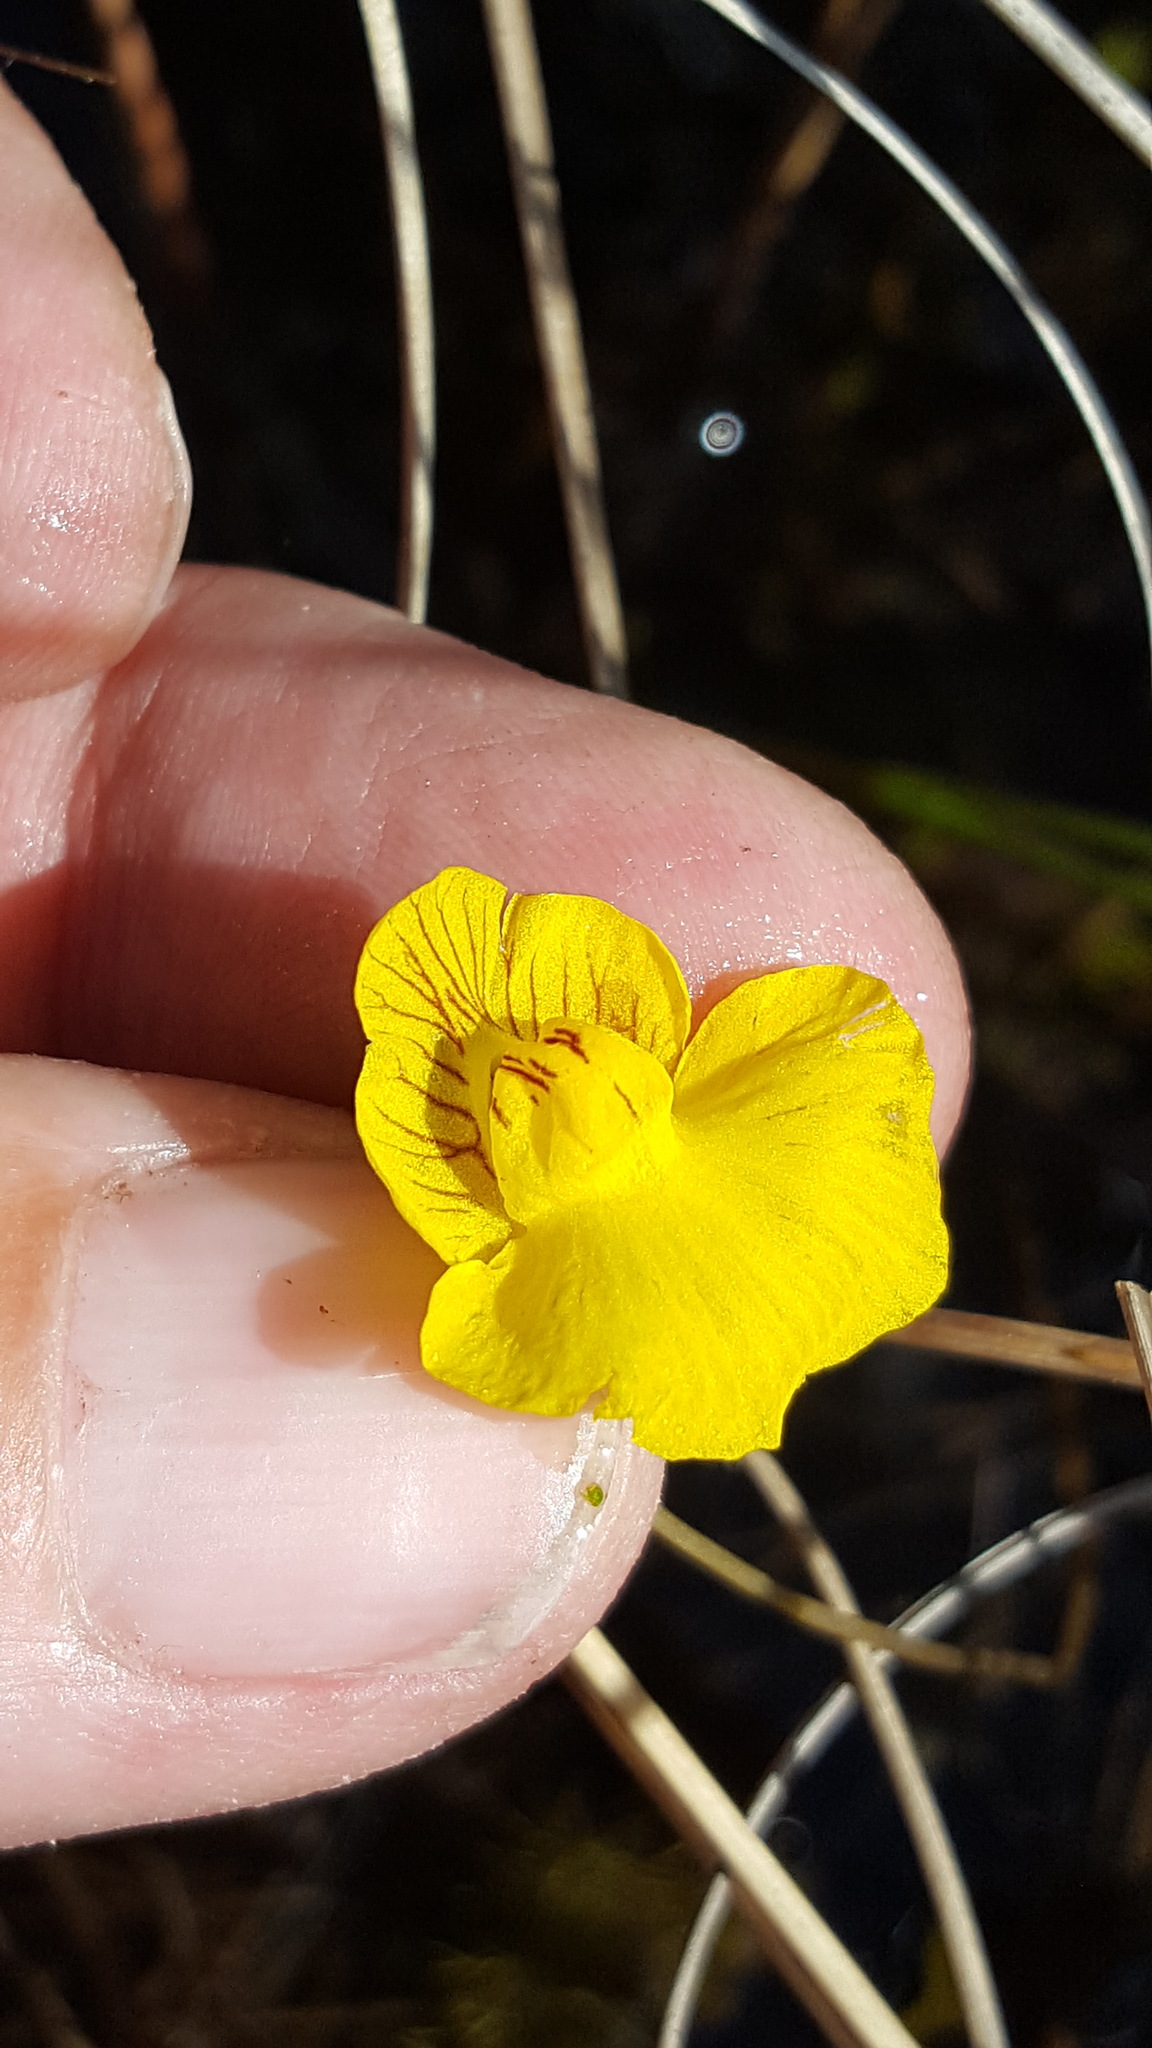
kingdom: Plantae
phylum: Tracheophyta
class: Magnoliopsida
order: Lamiales
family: Lentibulariaceae
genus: Utricularia
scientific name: Utricularia intermedia
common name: Intermediate bladderwort
